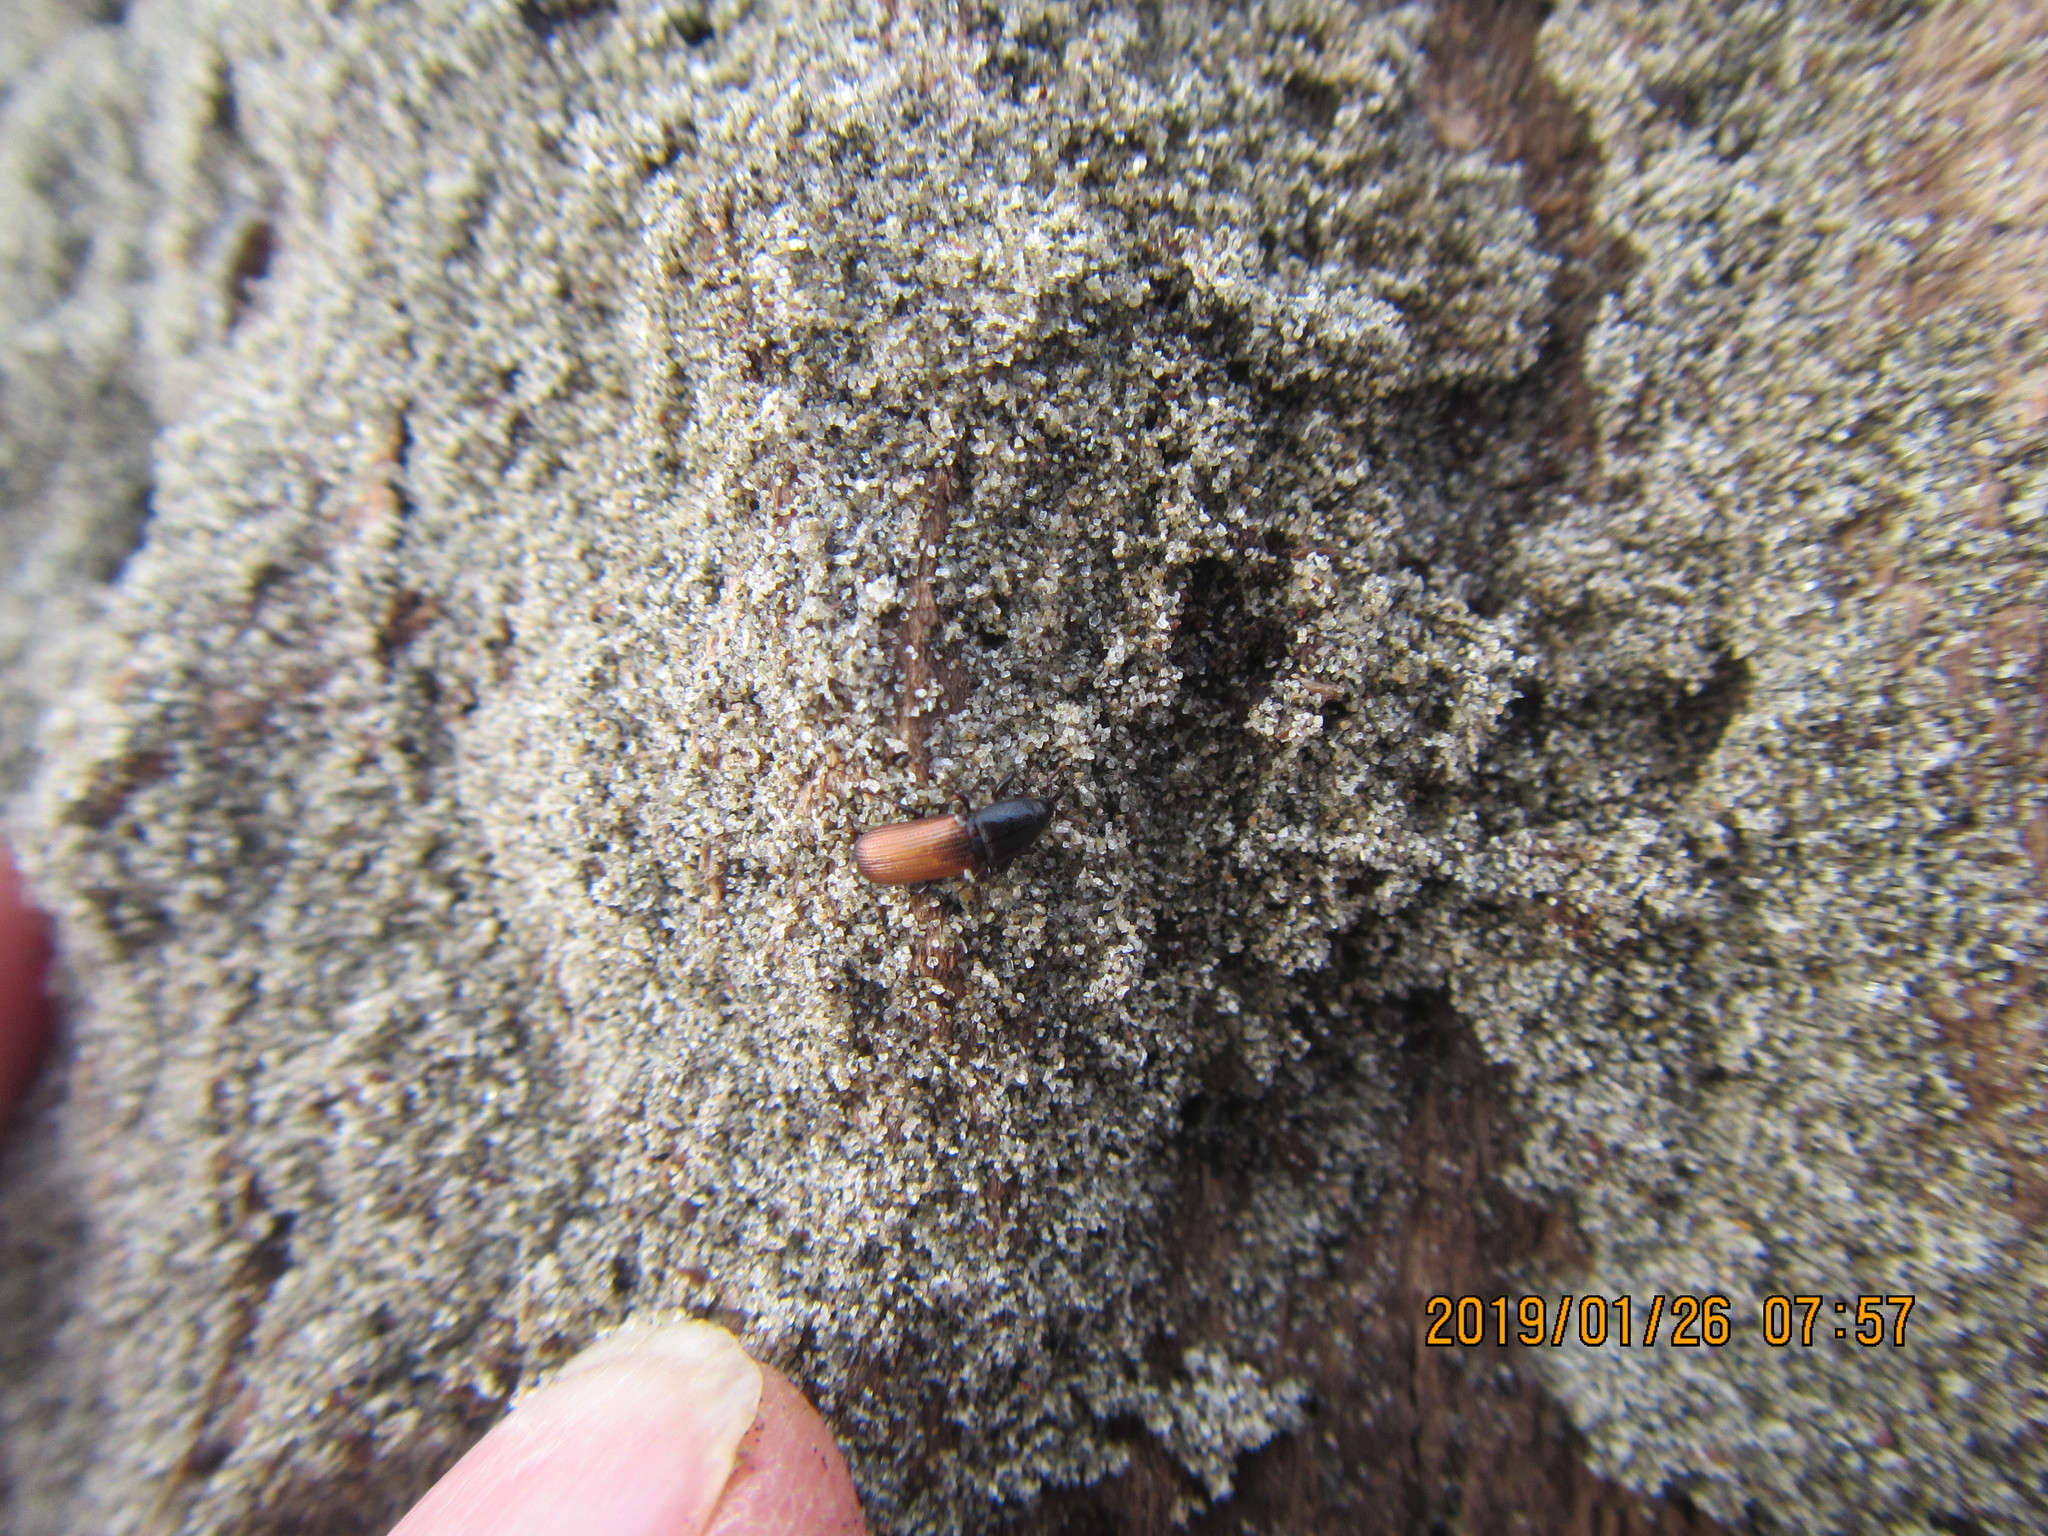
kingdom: Animalia
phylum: Arthropoda
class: Insecta
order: Coleoptera
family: Curculionidae
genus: Mesites
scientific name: Mesites pallidipennis
